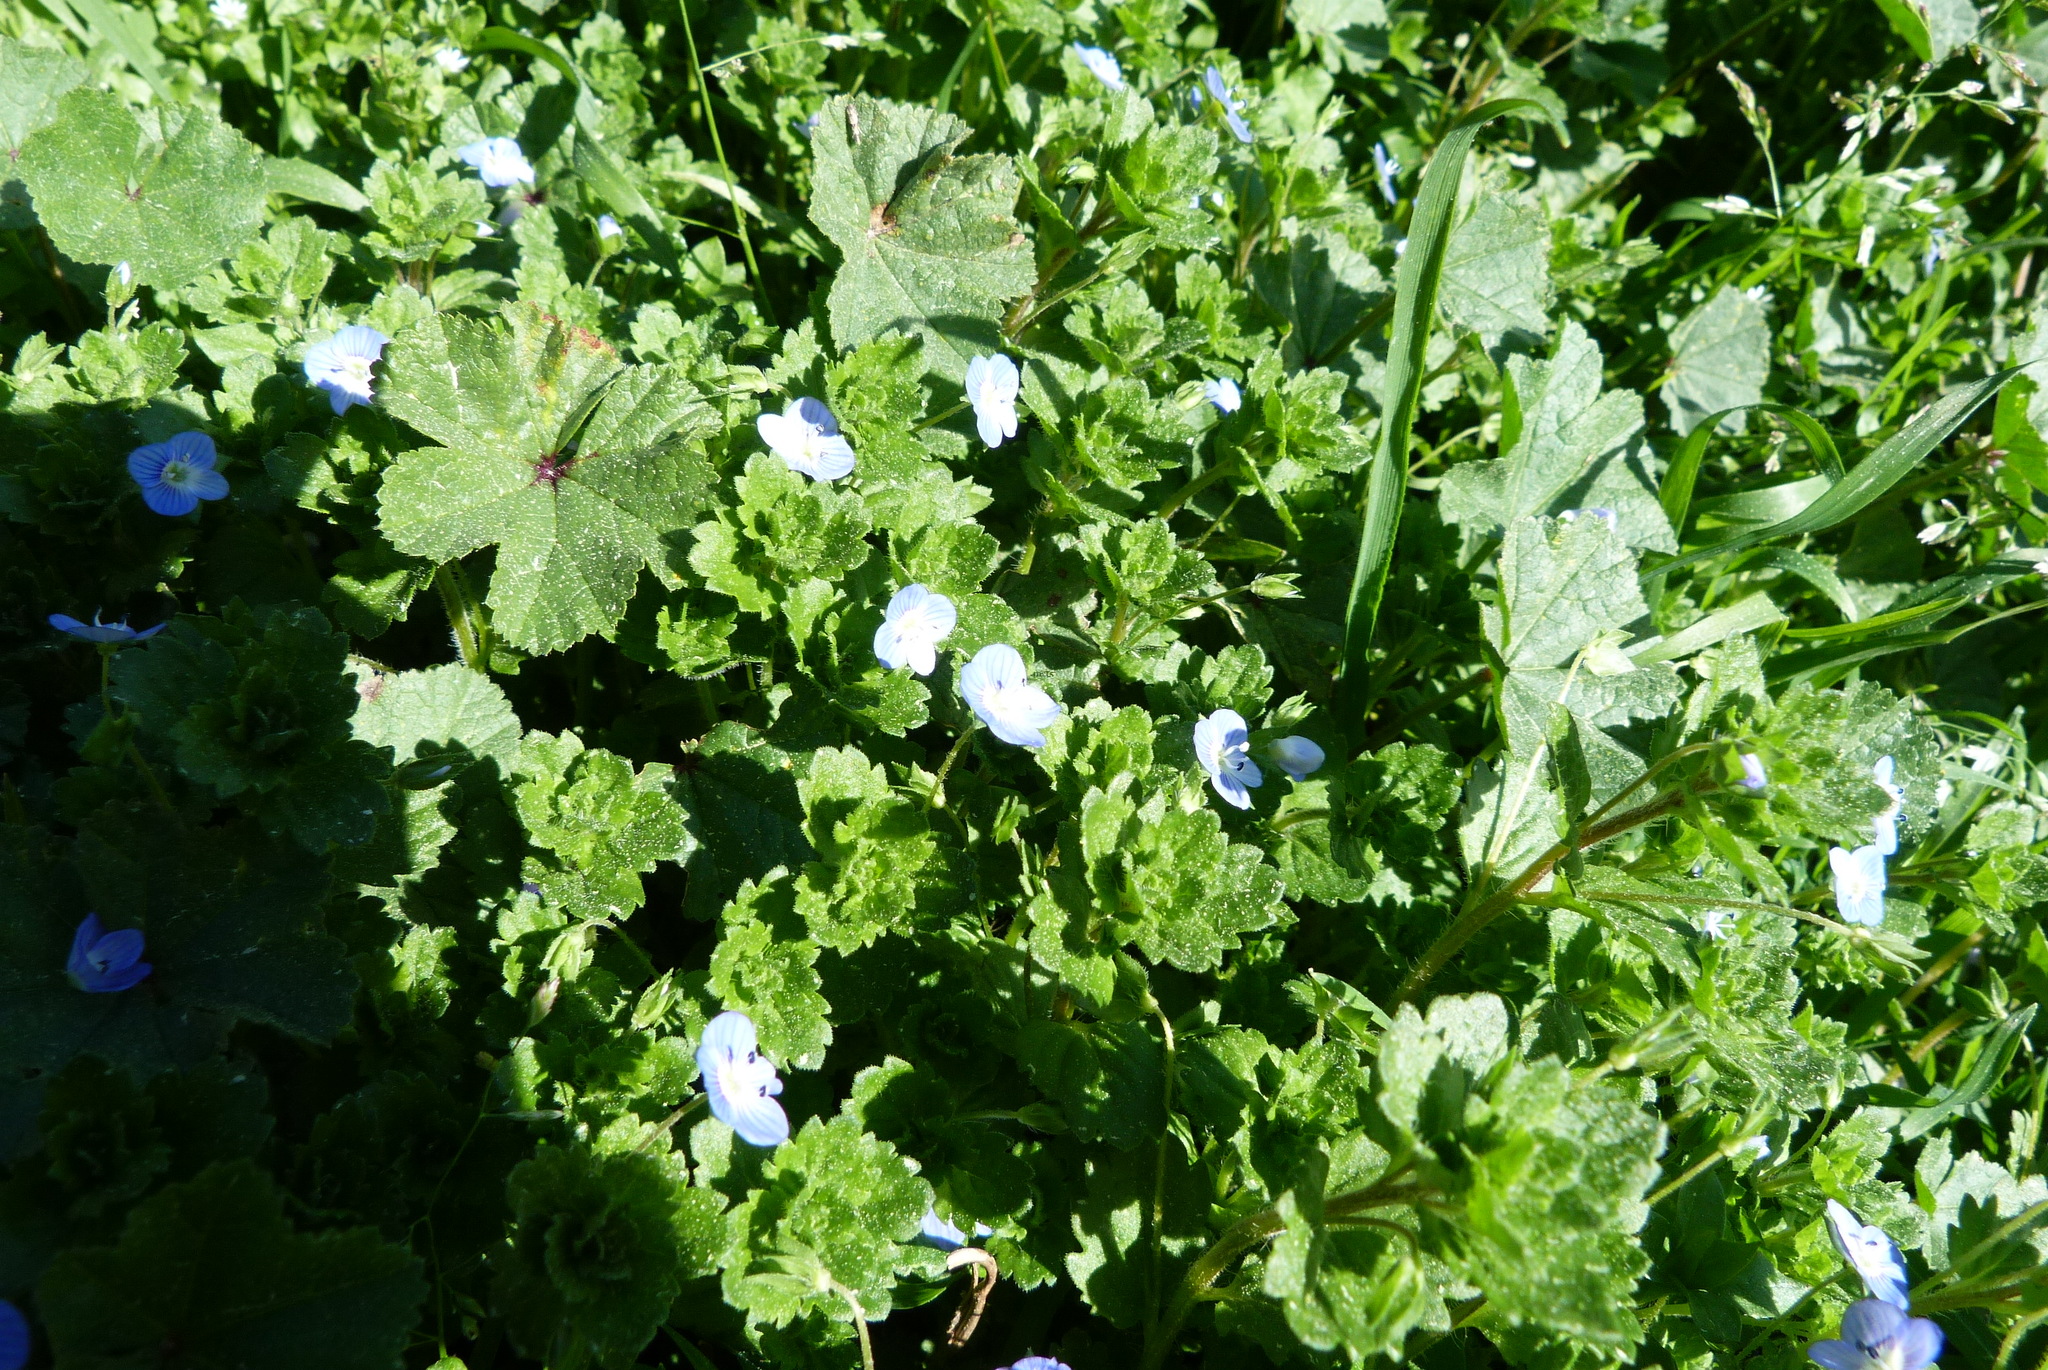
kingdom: Plantae
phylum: Tracheophyta
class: Magnoliopsida
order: Lamiales
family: Plantaginaceae
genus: Veronica
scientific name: Veronica persica
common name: Common field-speedwell
